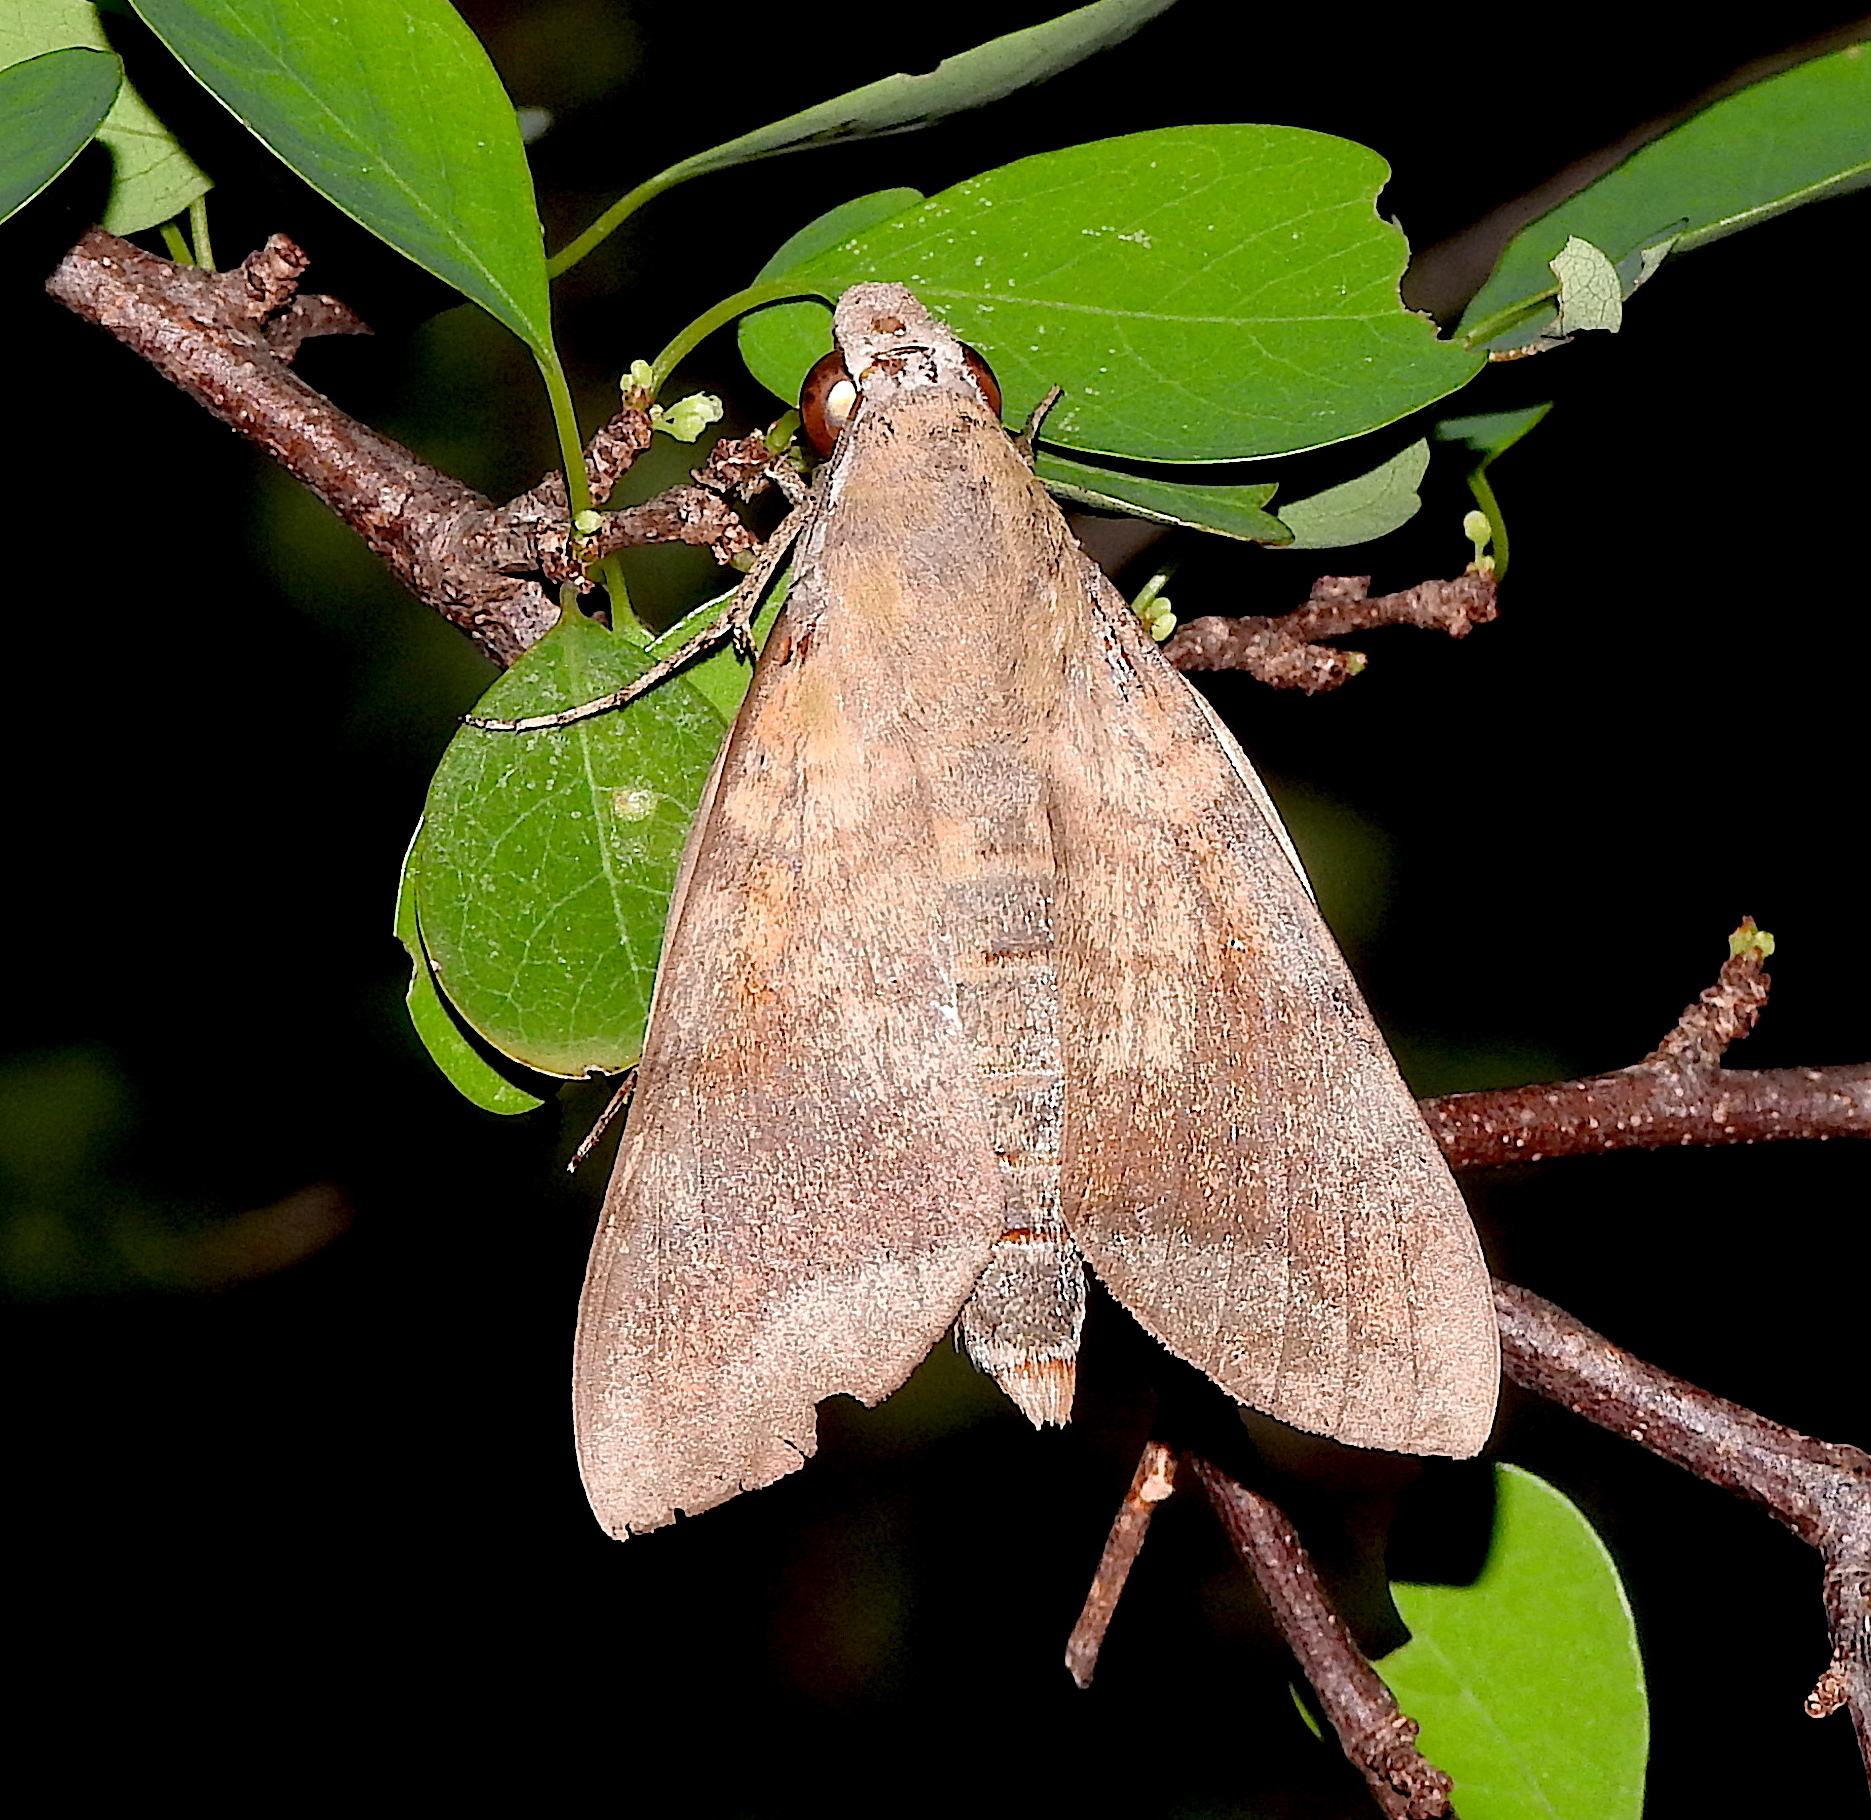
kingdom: Animalia
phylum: Arthropoda
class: Insecta
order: Lepidoptera
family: Sphingidae
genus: Nephele
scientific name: Nephele hespera
